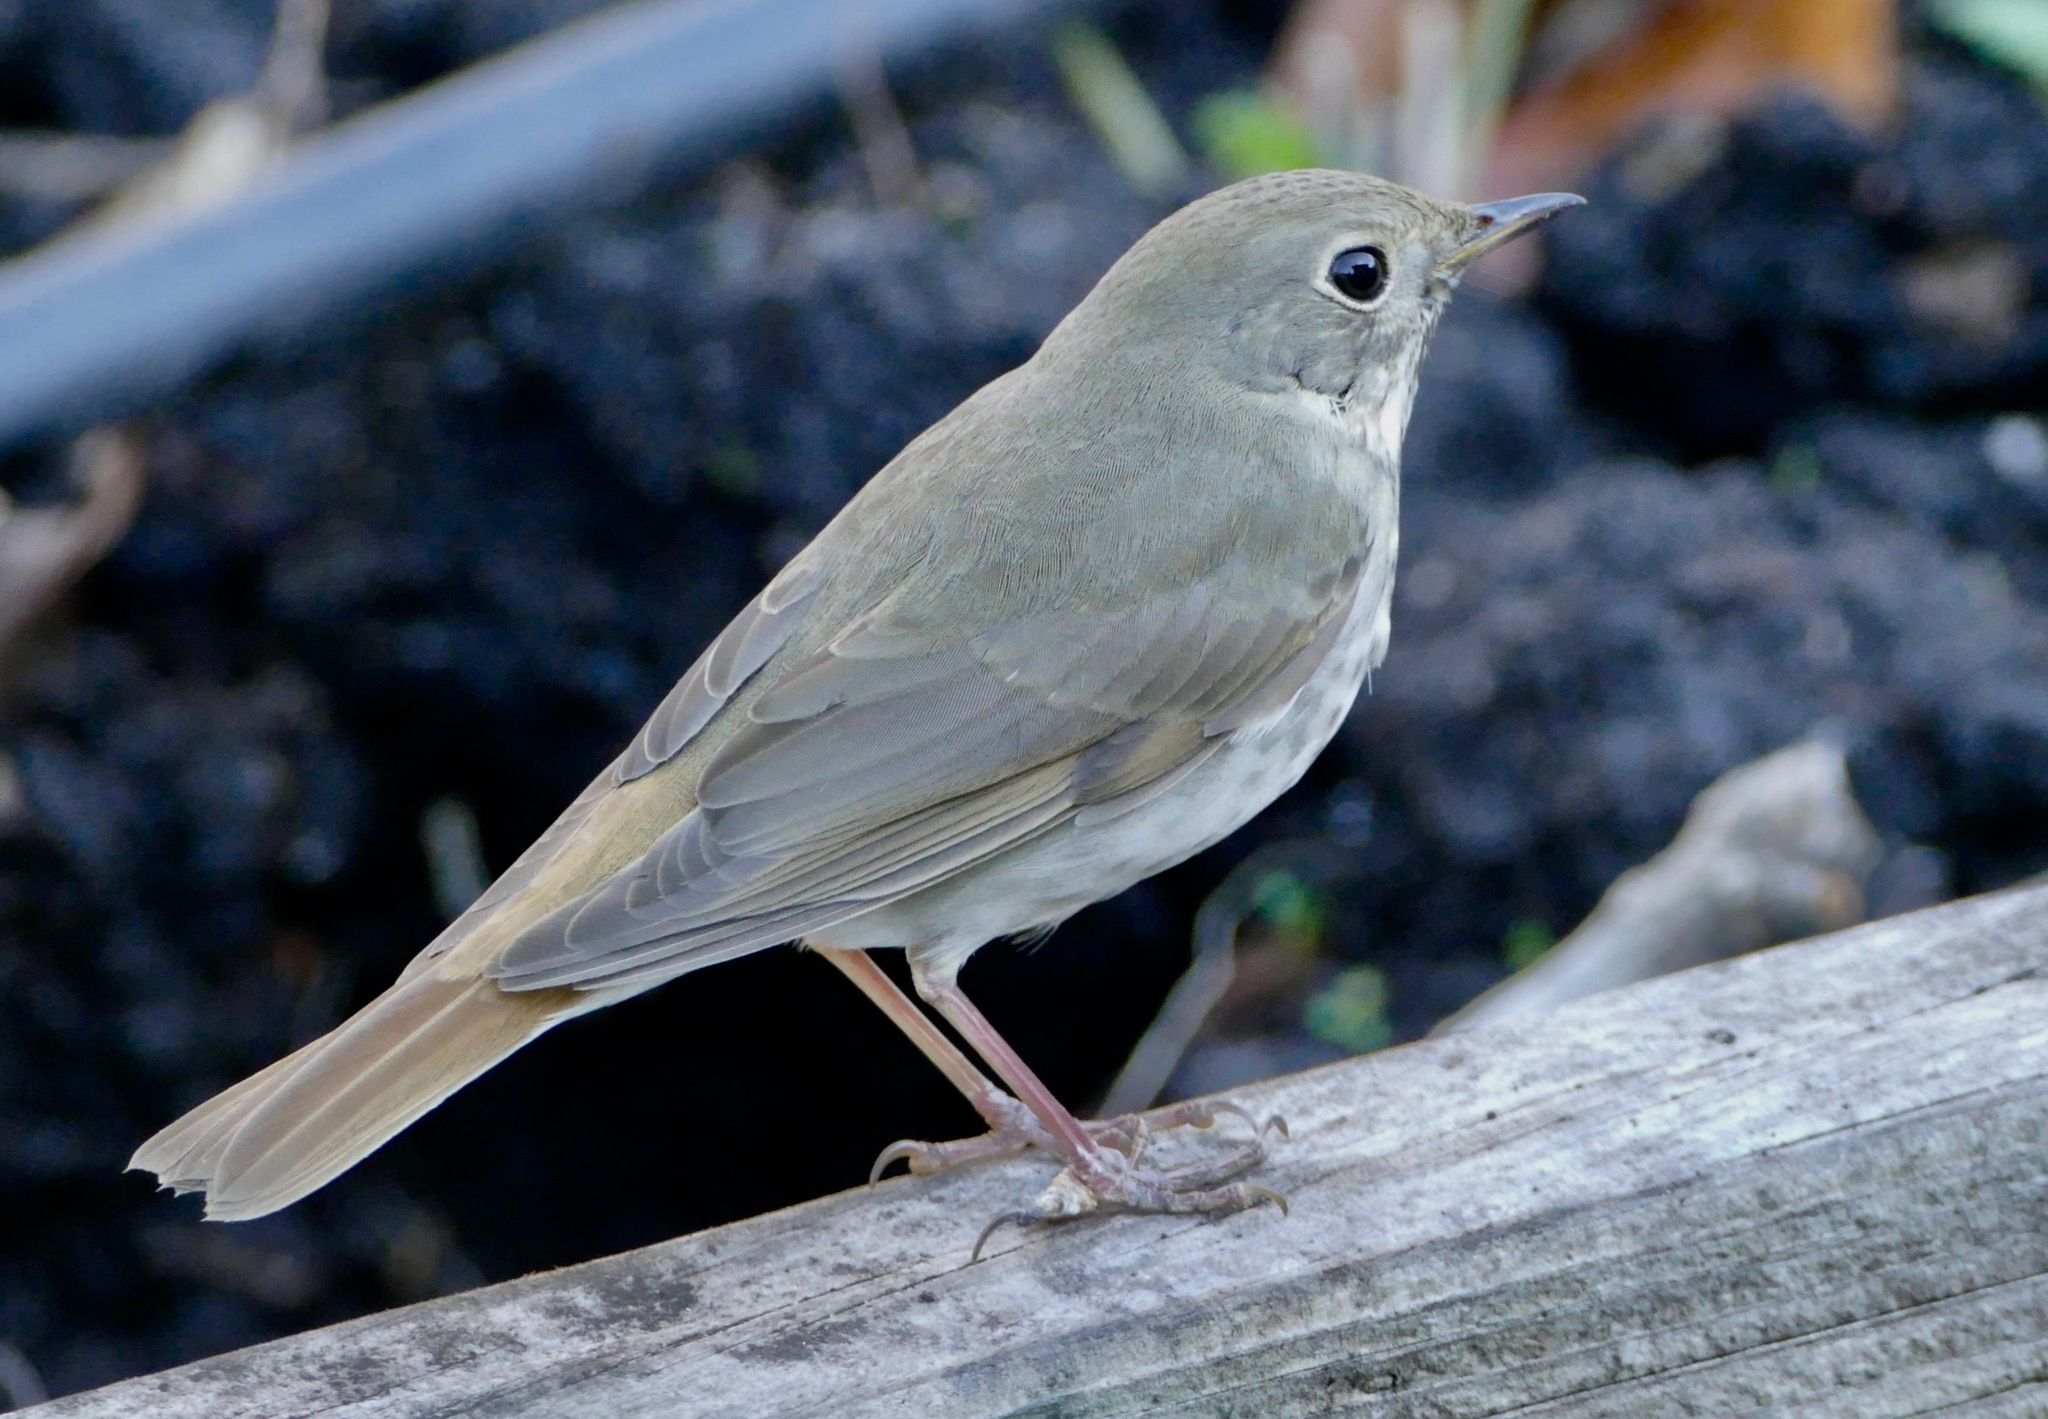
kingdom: Animalia
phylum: Chordata
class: Aves
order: Passeriformes
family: Turdidae
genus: Catharus
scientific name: Catharus guttatus
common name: Hermit thrush
